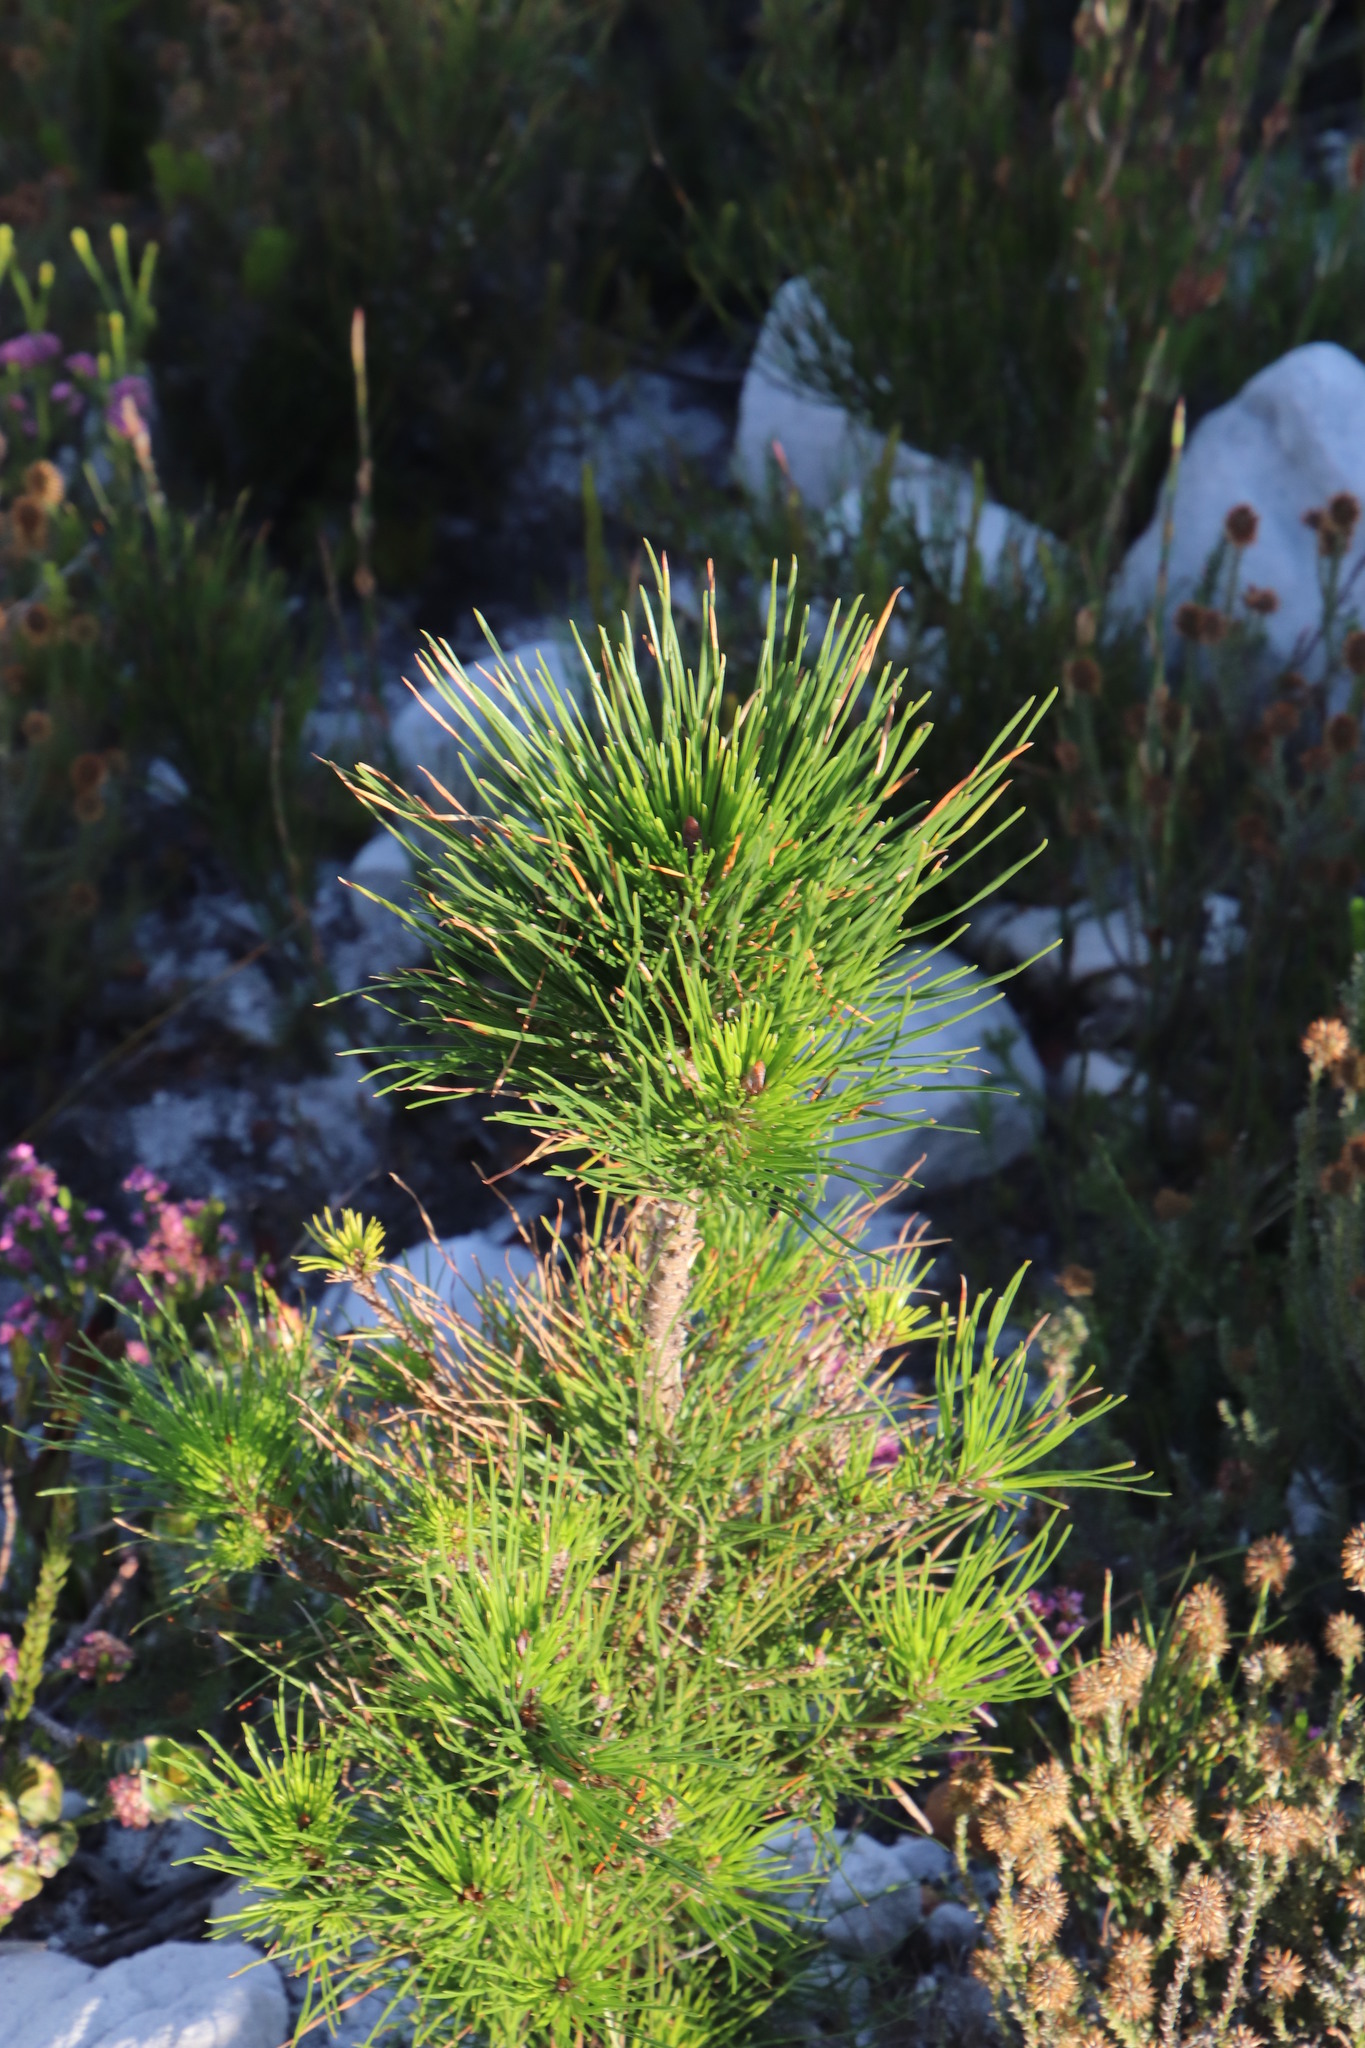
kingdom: Plantae
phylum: Tracheophyta
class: Pinopsida
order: Pinales
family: Pinaceae
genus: Pinus
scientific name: Pinus radiata
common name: Monterey pine
